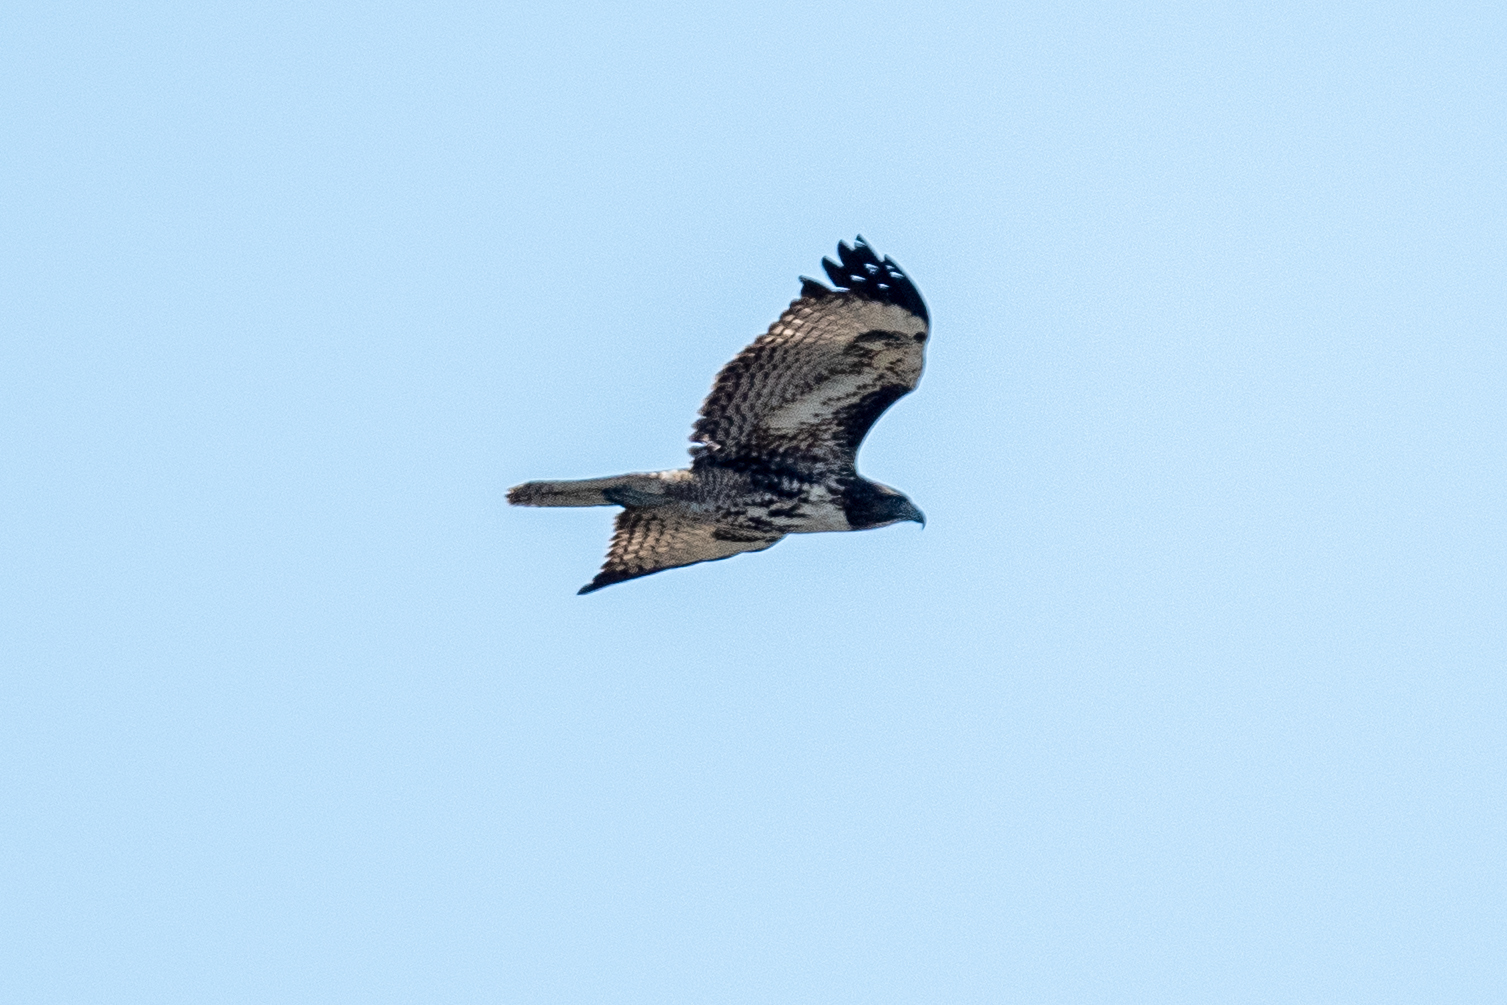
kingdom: Animalia
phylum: Chordata
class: Aves
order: Accipitriformes
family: Accipitridae
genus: Buteo
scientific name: Buteo jamaicensis
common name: Red-tailed hawk
